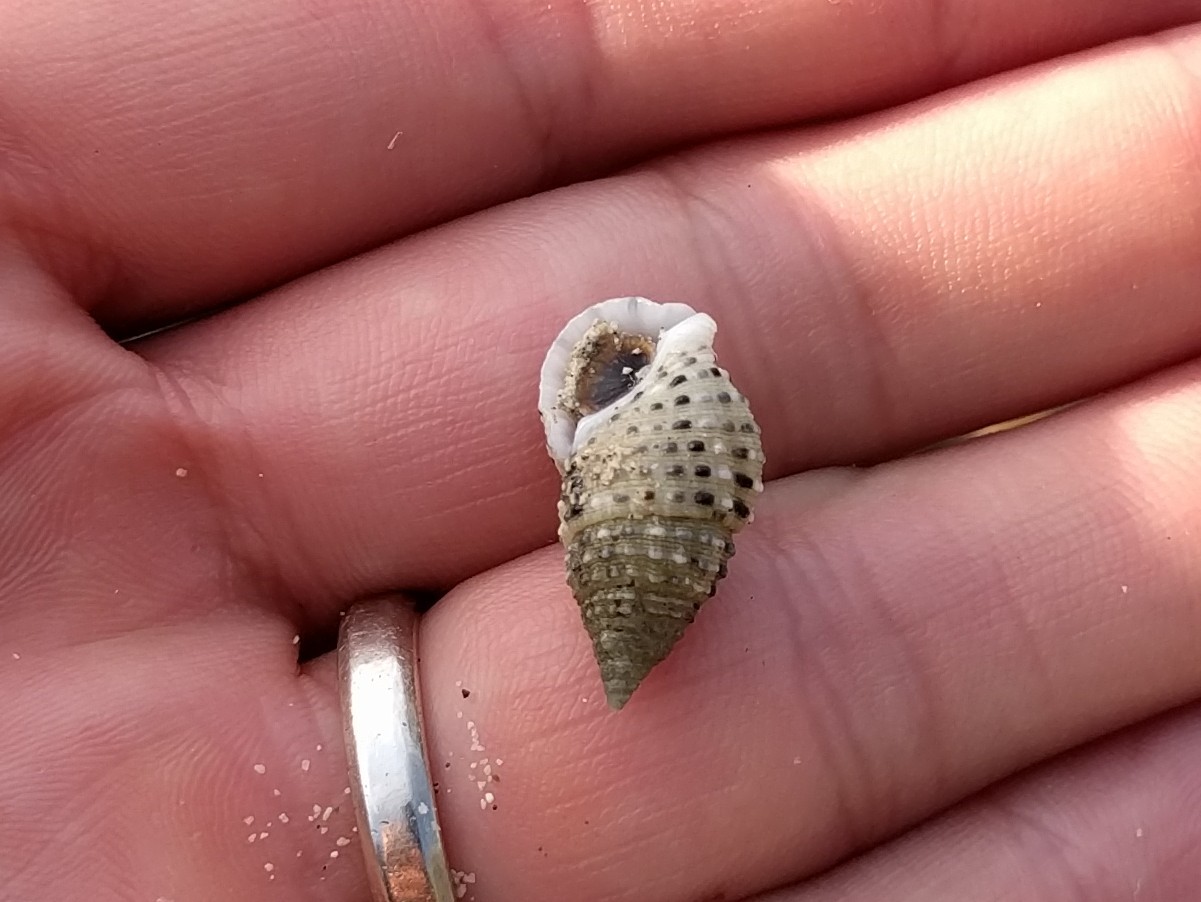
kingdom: Animalia
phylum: Mollusca
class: Gastropoda
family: Cerithiidae
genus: Clypeomorus
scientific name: Clypeomorus petrosa
